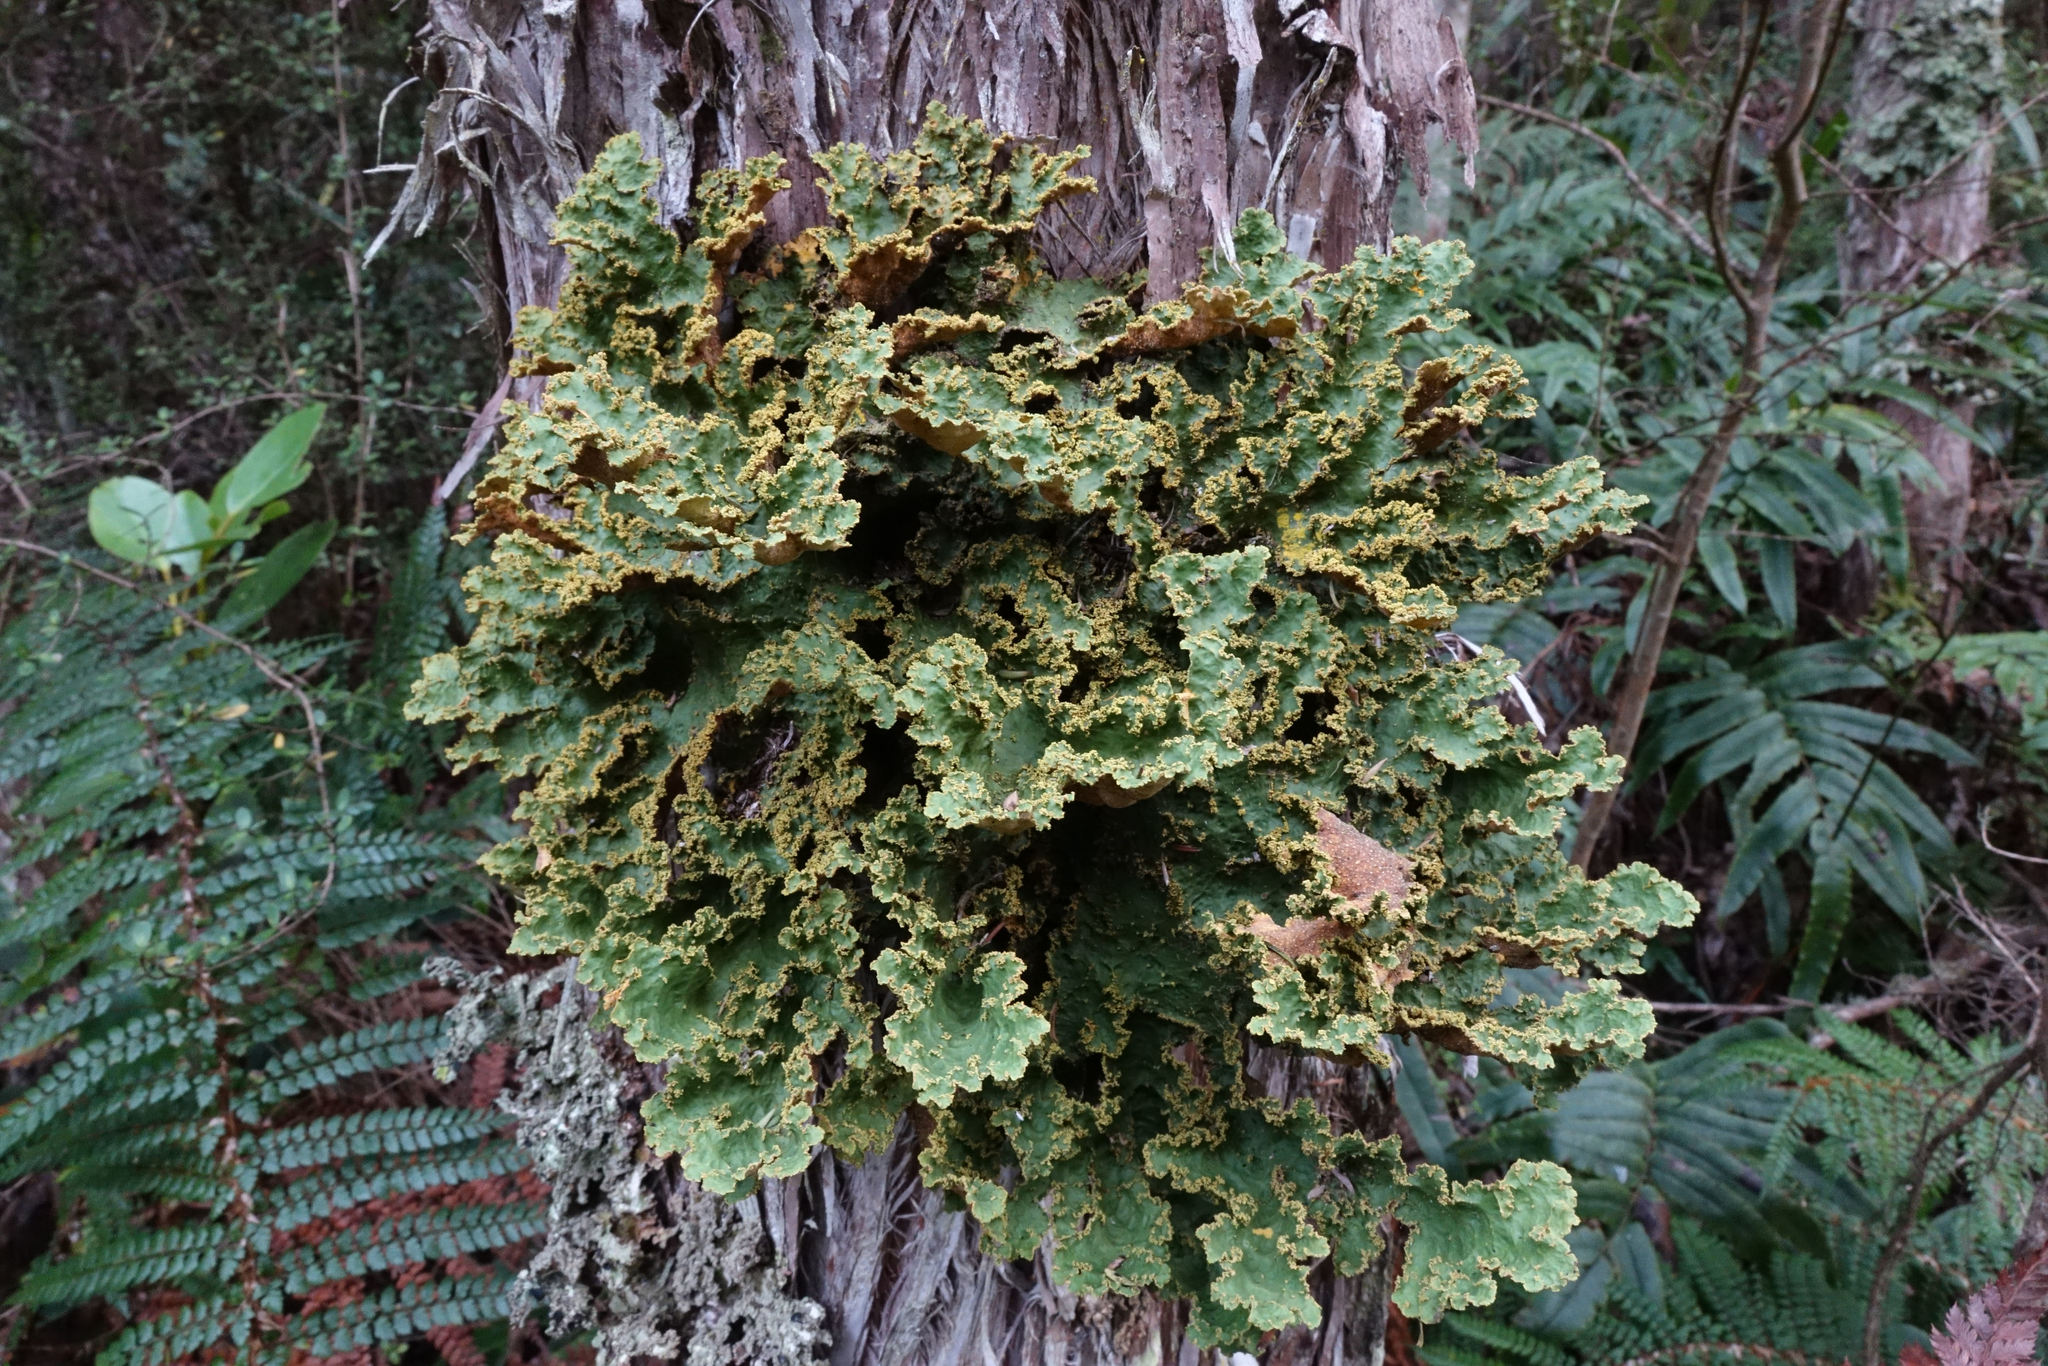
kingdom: Fungi
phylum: Ascomycota
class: Lecanoromycetes
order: Peltigerales
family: Lobariaceae
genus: Yarrumia
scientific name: Yarrumia colensoi
